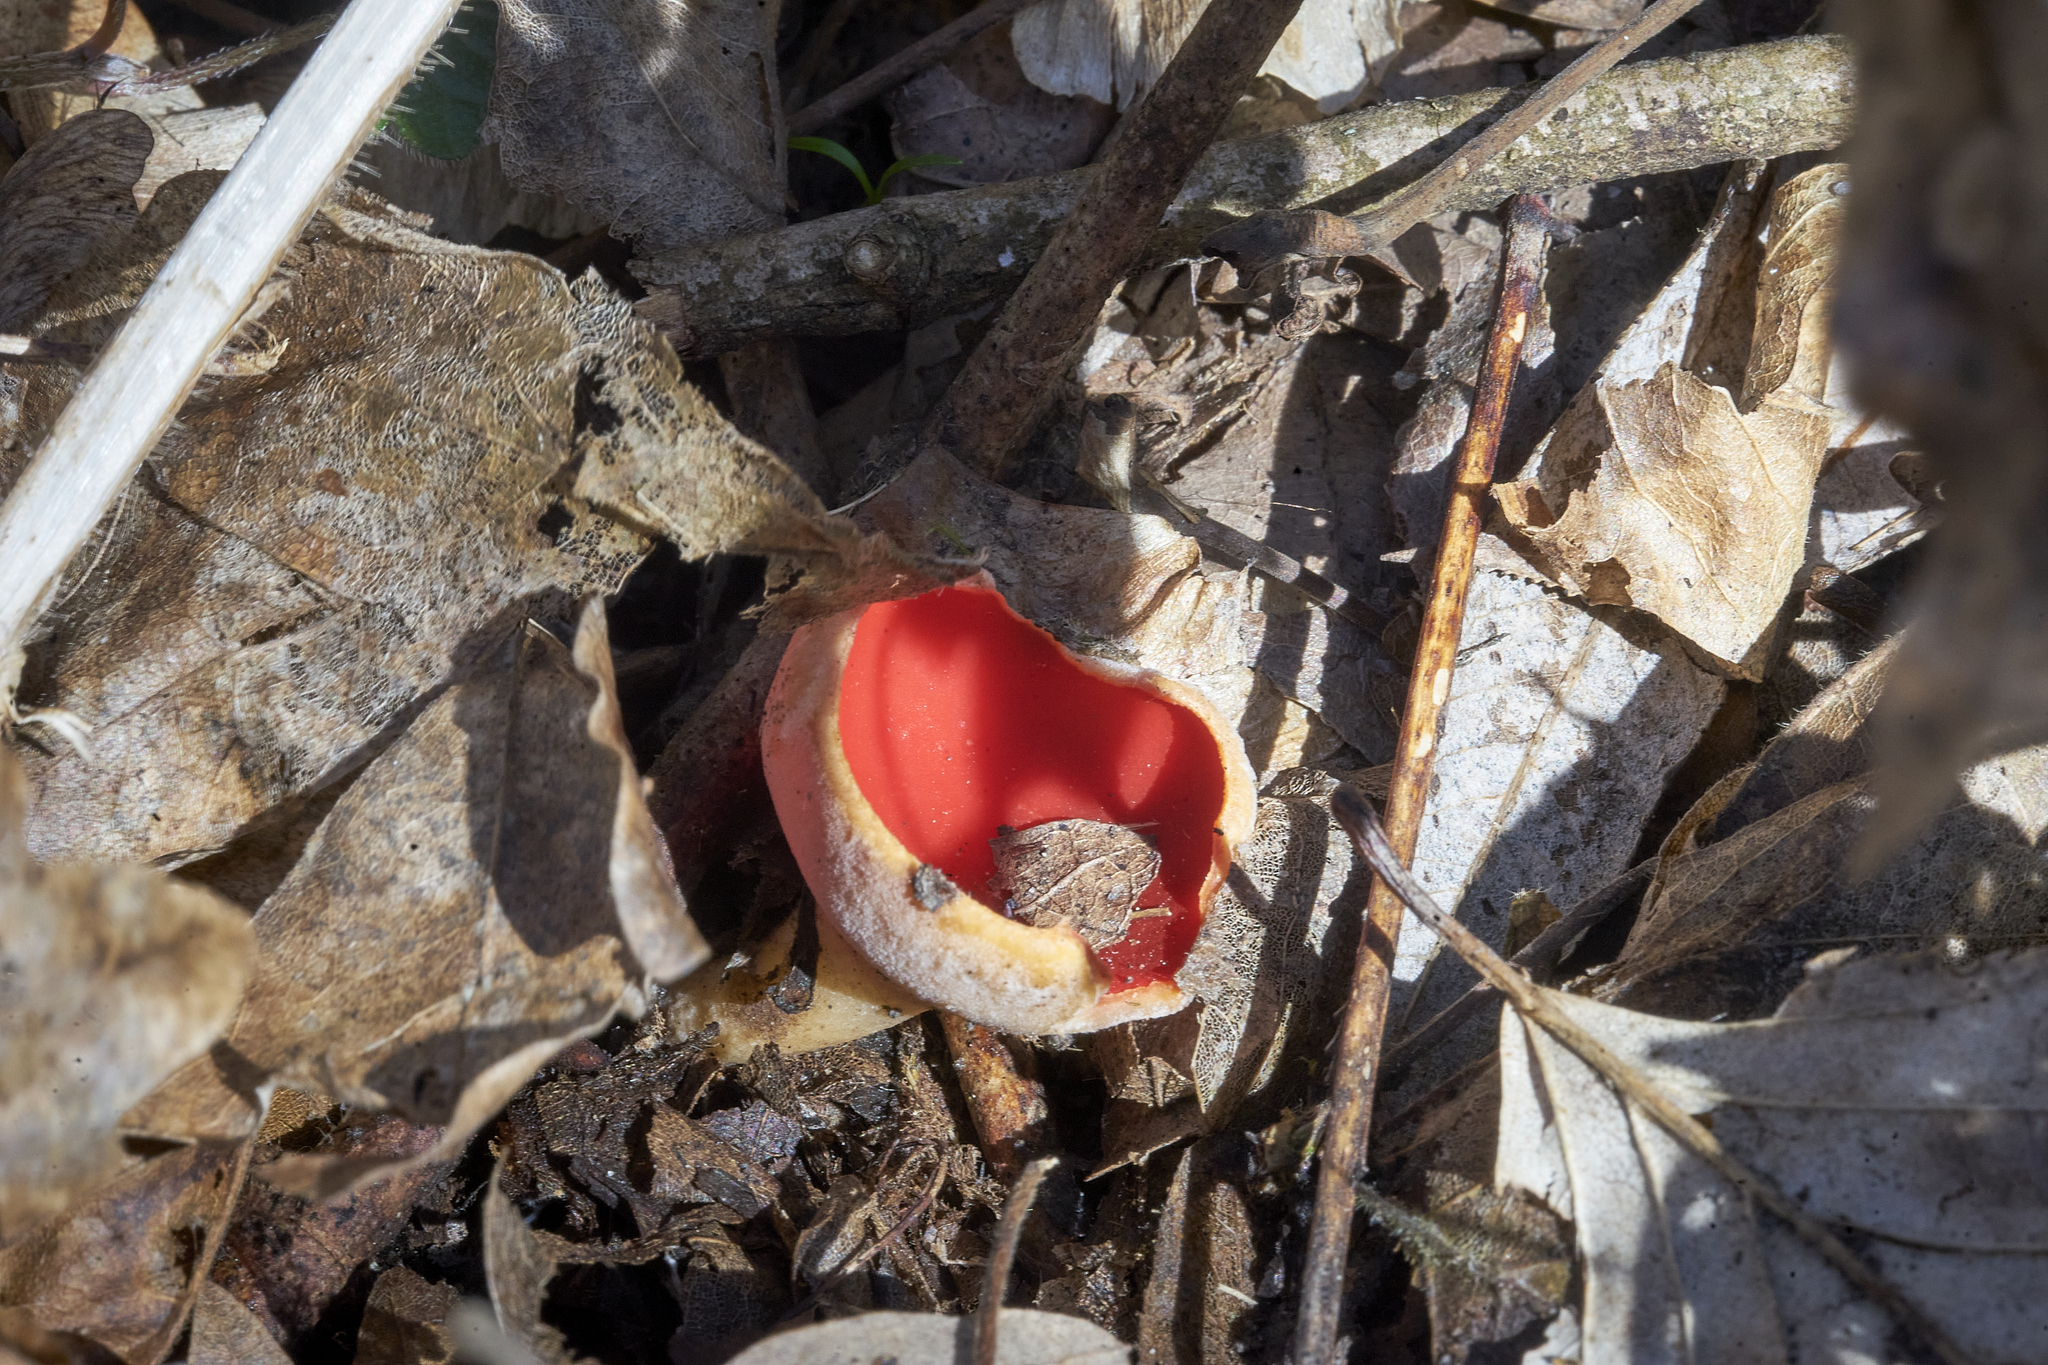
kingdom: Fungi
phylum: Ascomycota
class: Pezizomycetes
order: Pezizales
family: Sarcoscyphaceae
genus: Sarcoscypha
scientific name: Sarcoscypha
